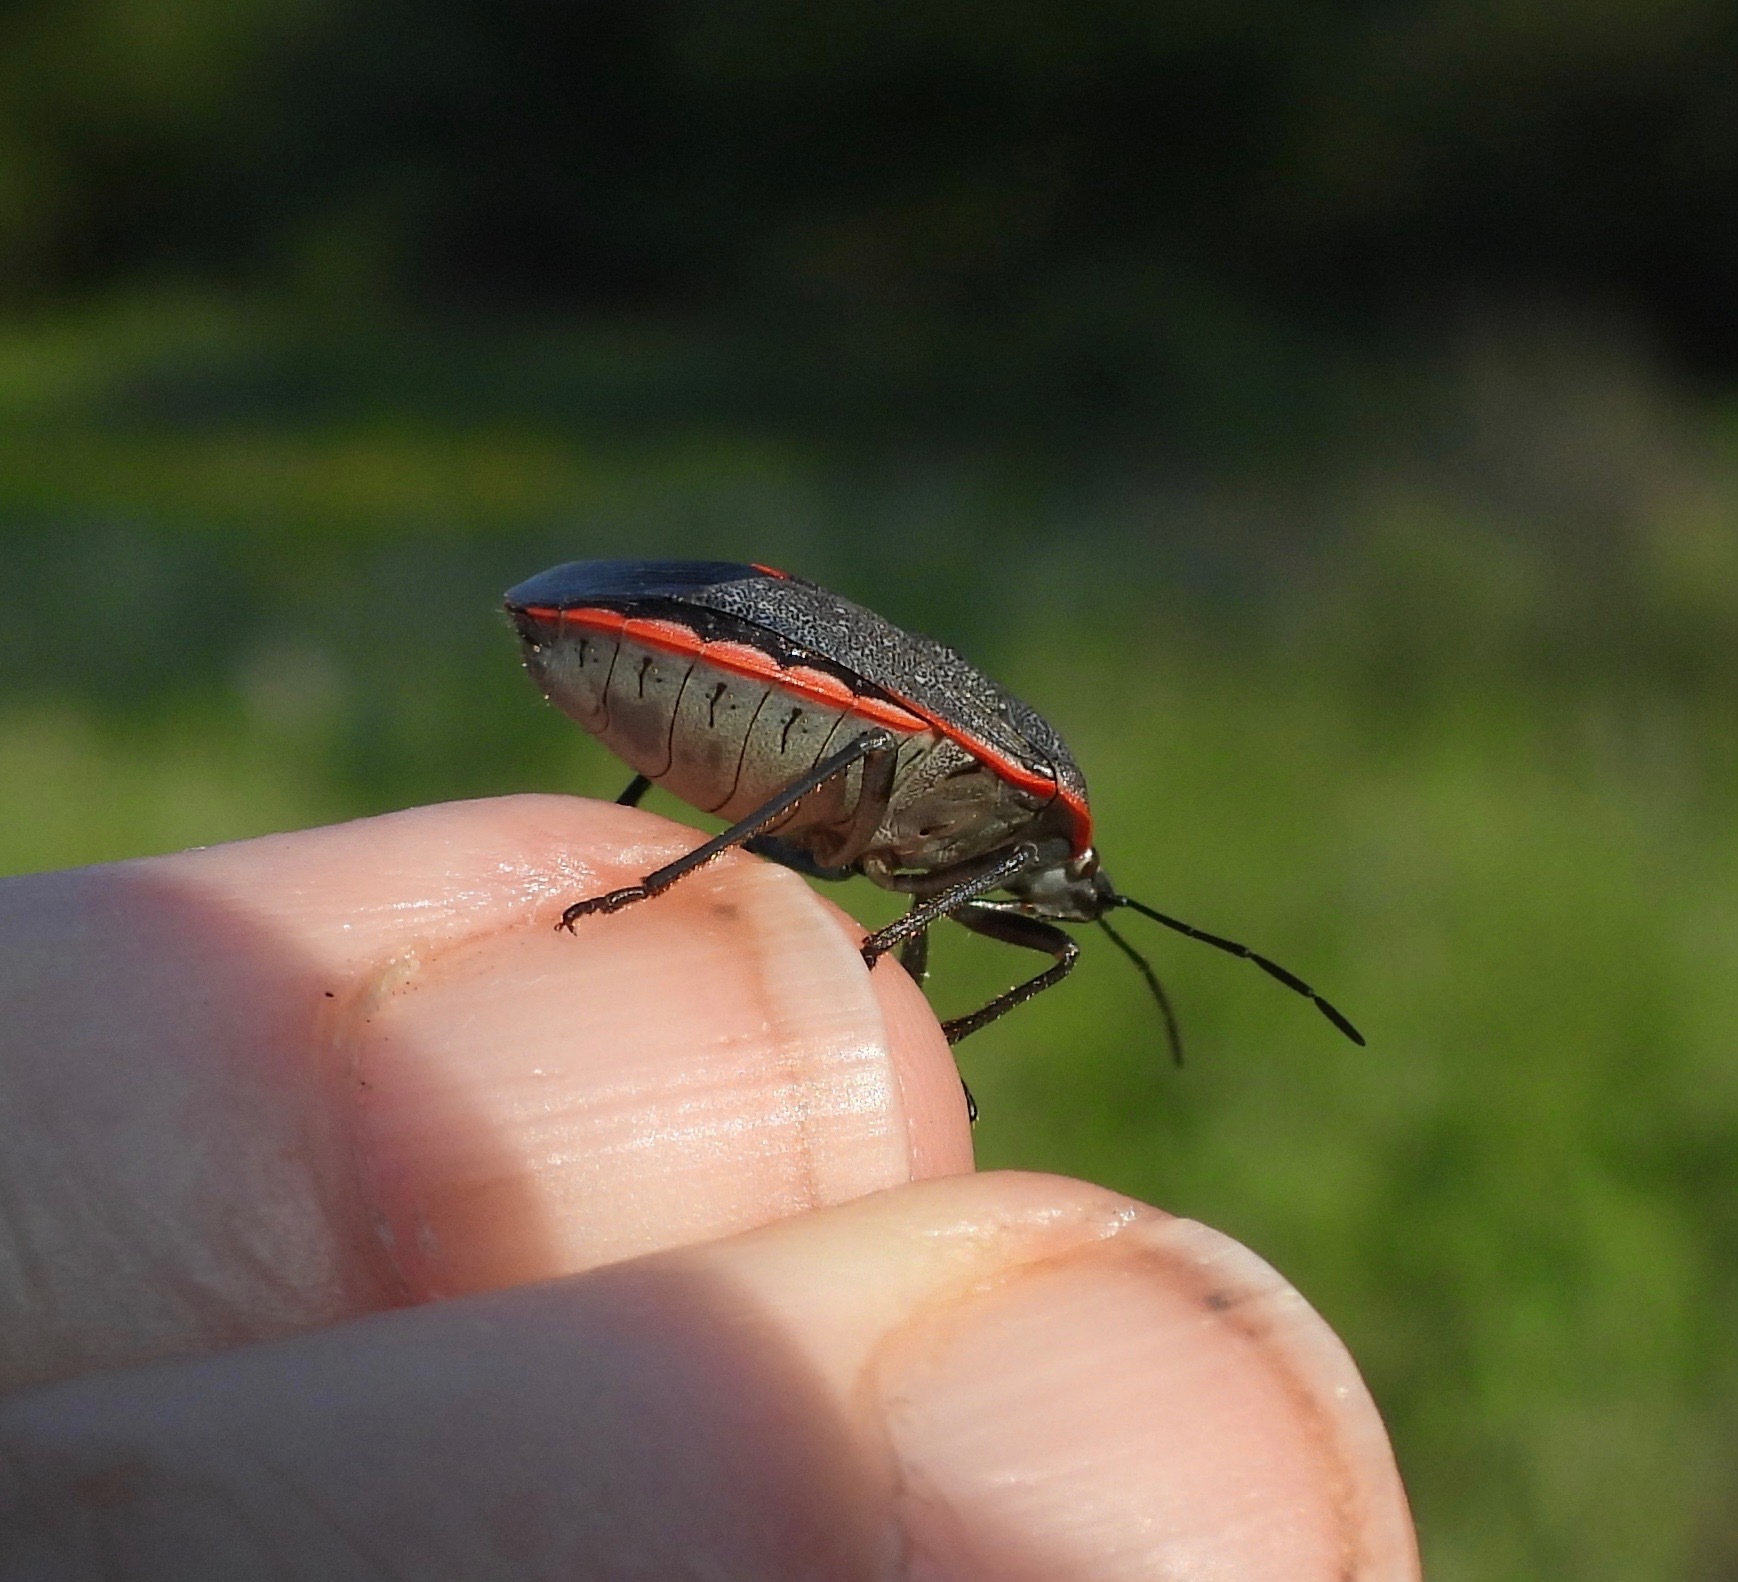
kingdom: Animalia
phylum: Arthropoda
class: Insecta
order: Hemiptera
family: Pentatomidae
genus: Chlorochroa
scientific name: Chlorochroa ligata
